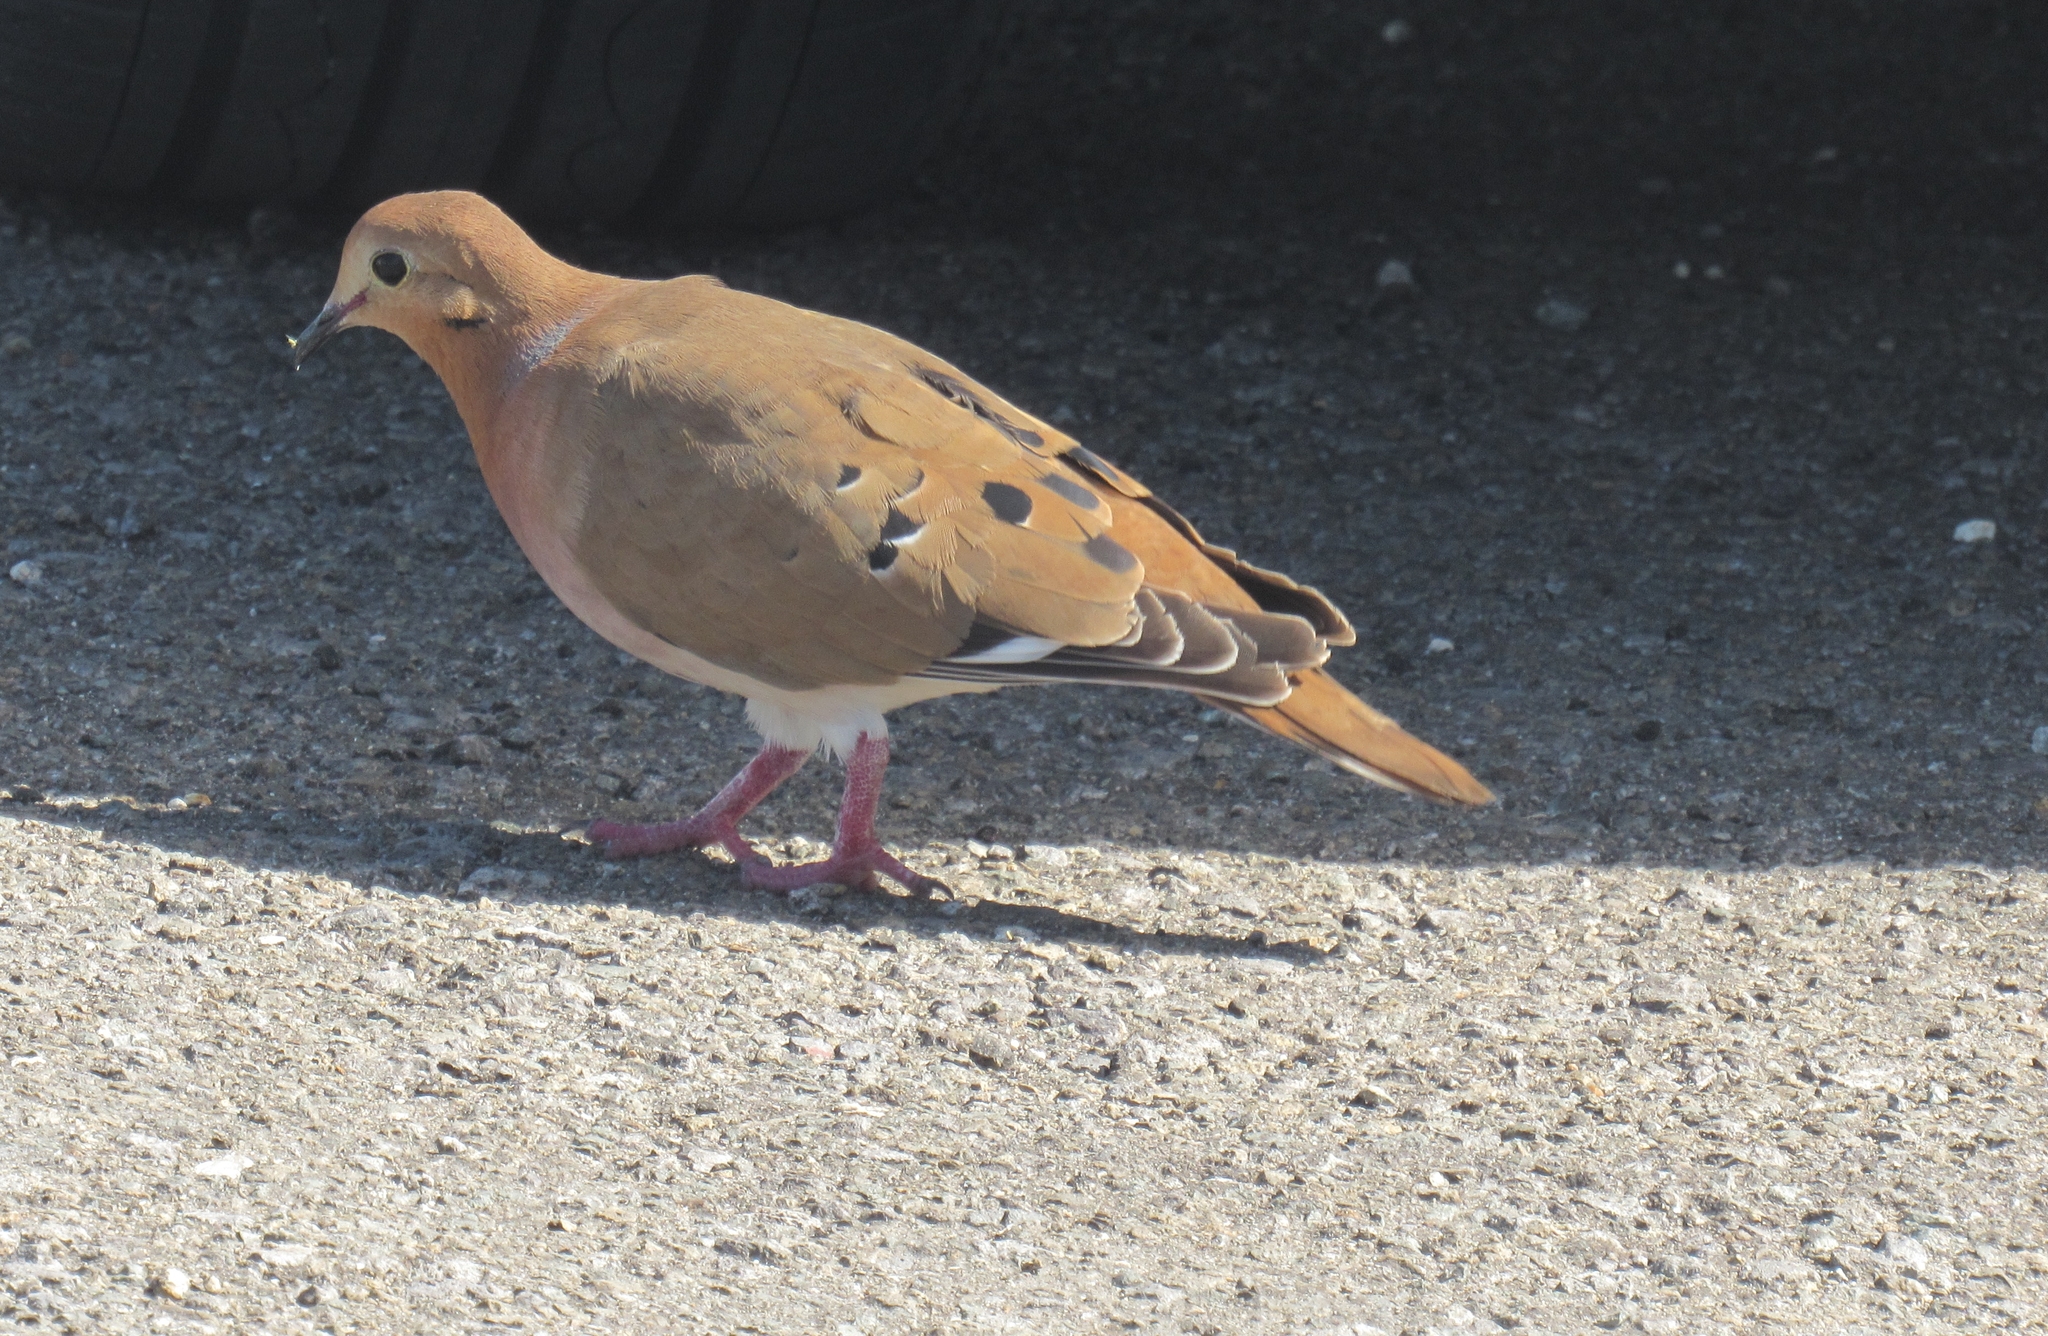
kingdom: Animalia
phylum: Chordata
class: Aves
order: Columbiformes
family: Columbidae
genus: Zenaida
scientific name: Zenaida aurita
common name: Zenaida dove
